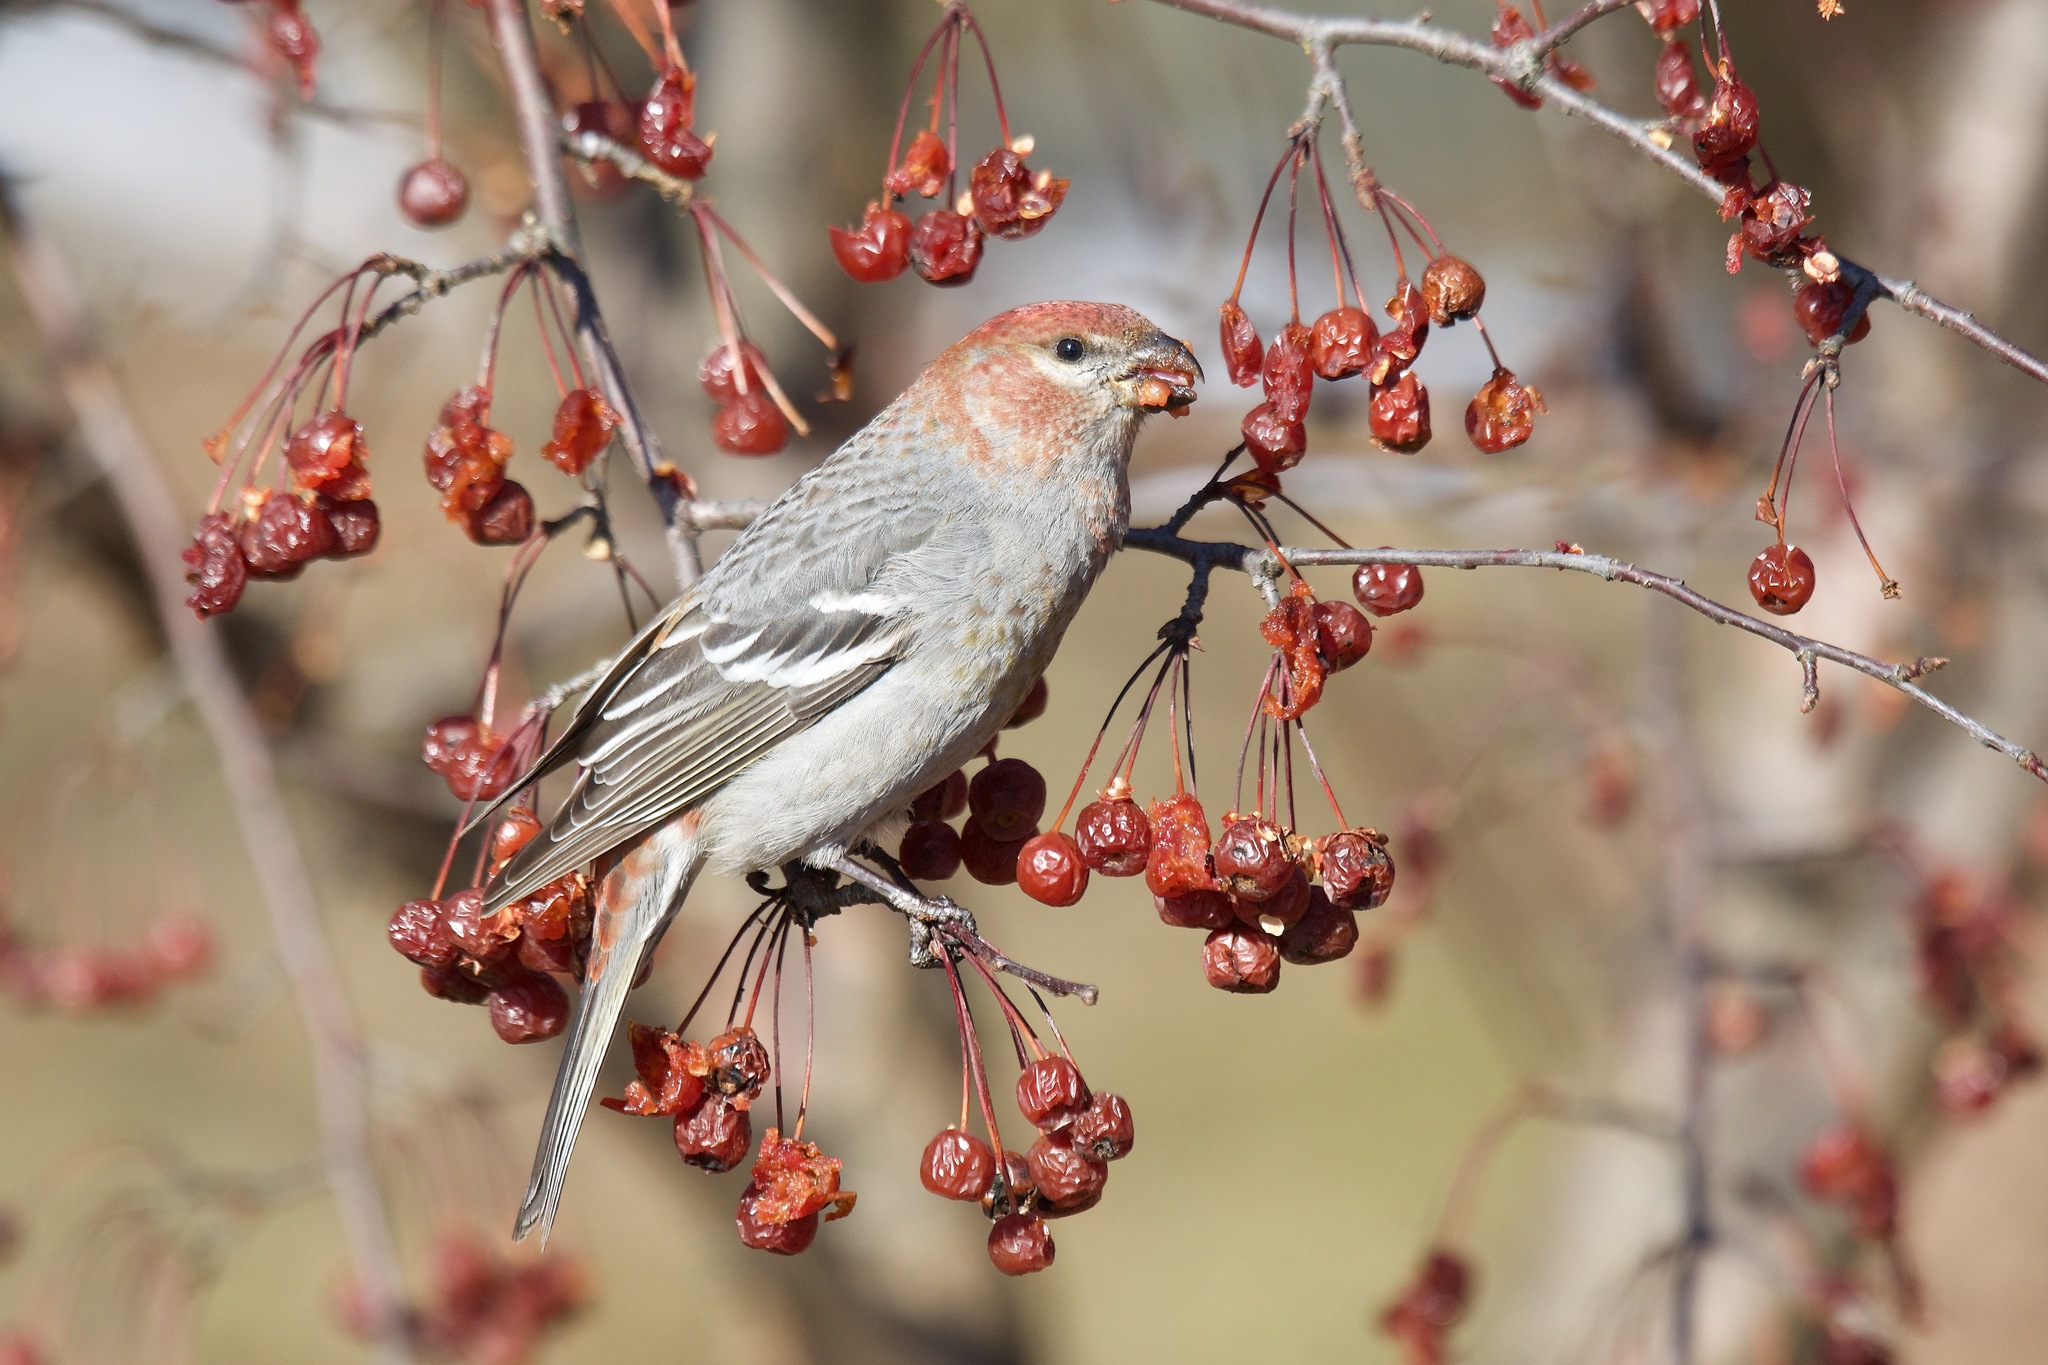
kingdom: Animalia
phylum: Chordata
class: Aves
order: Passeriformes
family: Fringillidae
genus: Pinicola
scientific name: Pinicola enucleator
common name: Pine grosbeak
